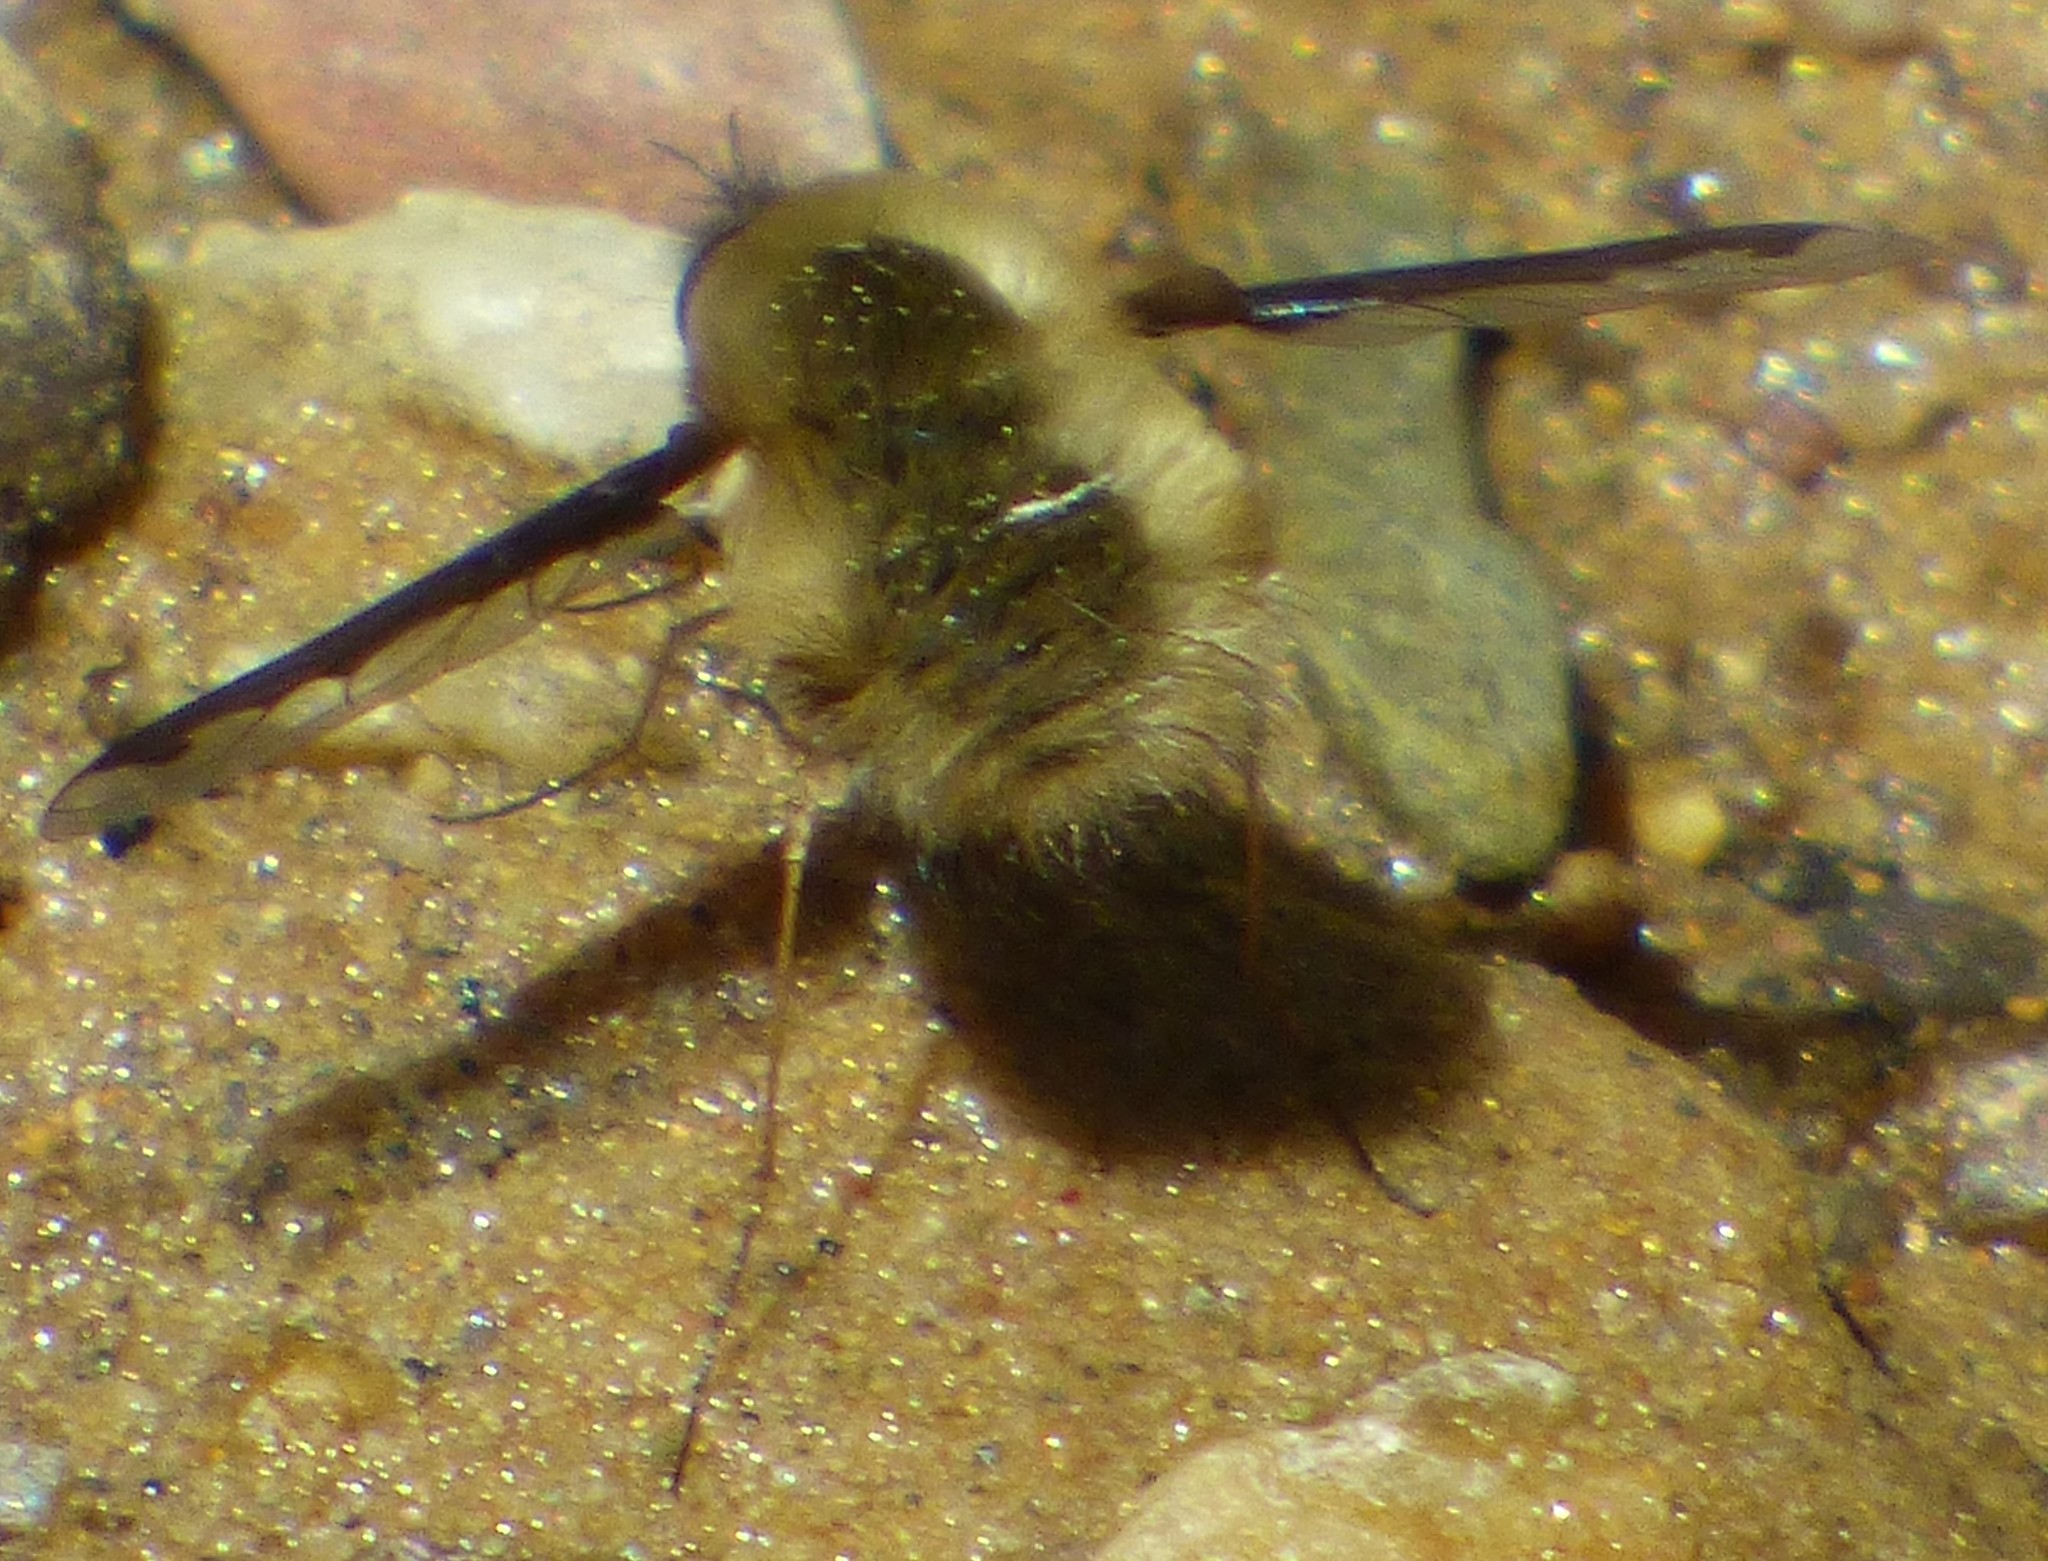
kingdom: Animalia
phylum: Arthropoda
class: Insecta
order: Diptera
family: Bombyliidae
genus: Bombylius
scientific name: Bombylius major
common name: Bee fly
